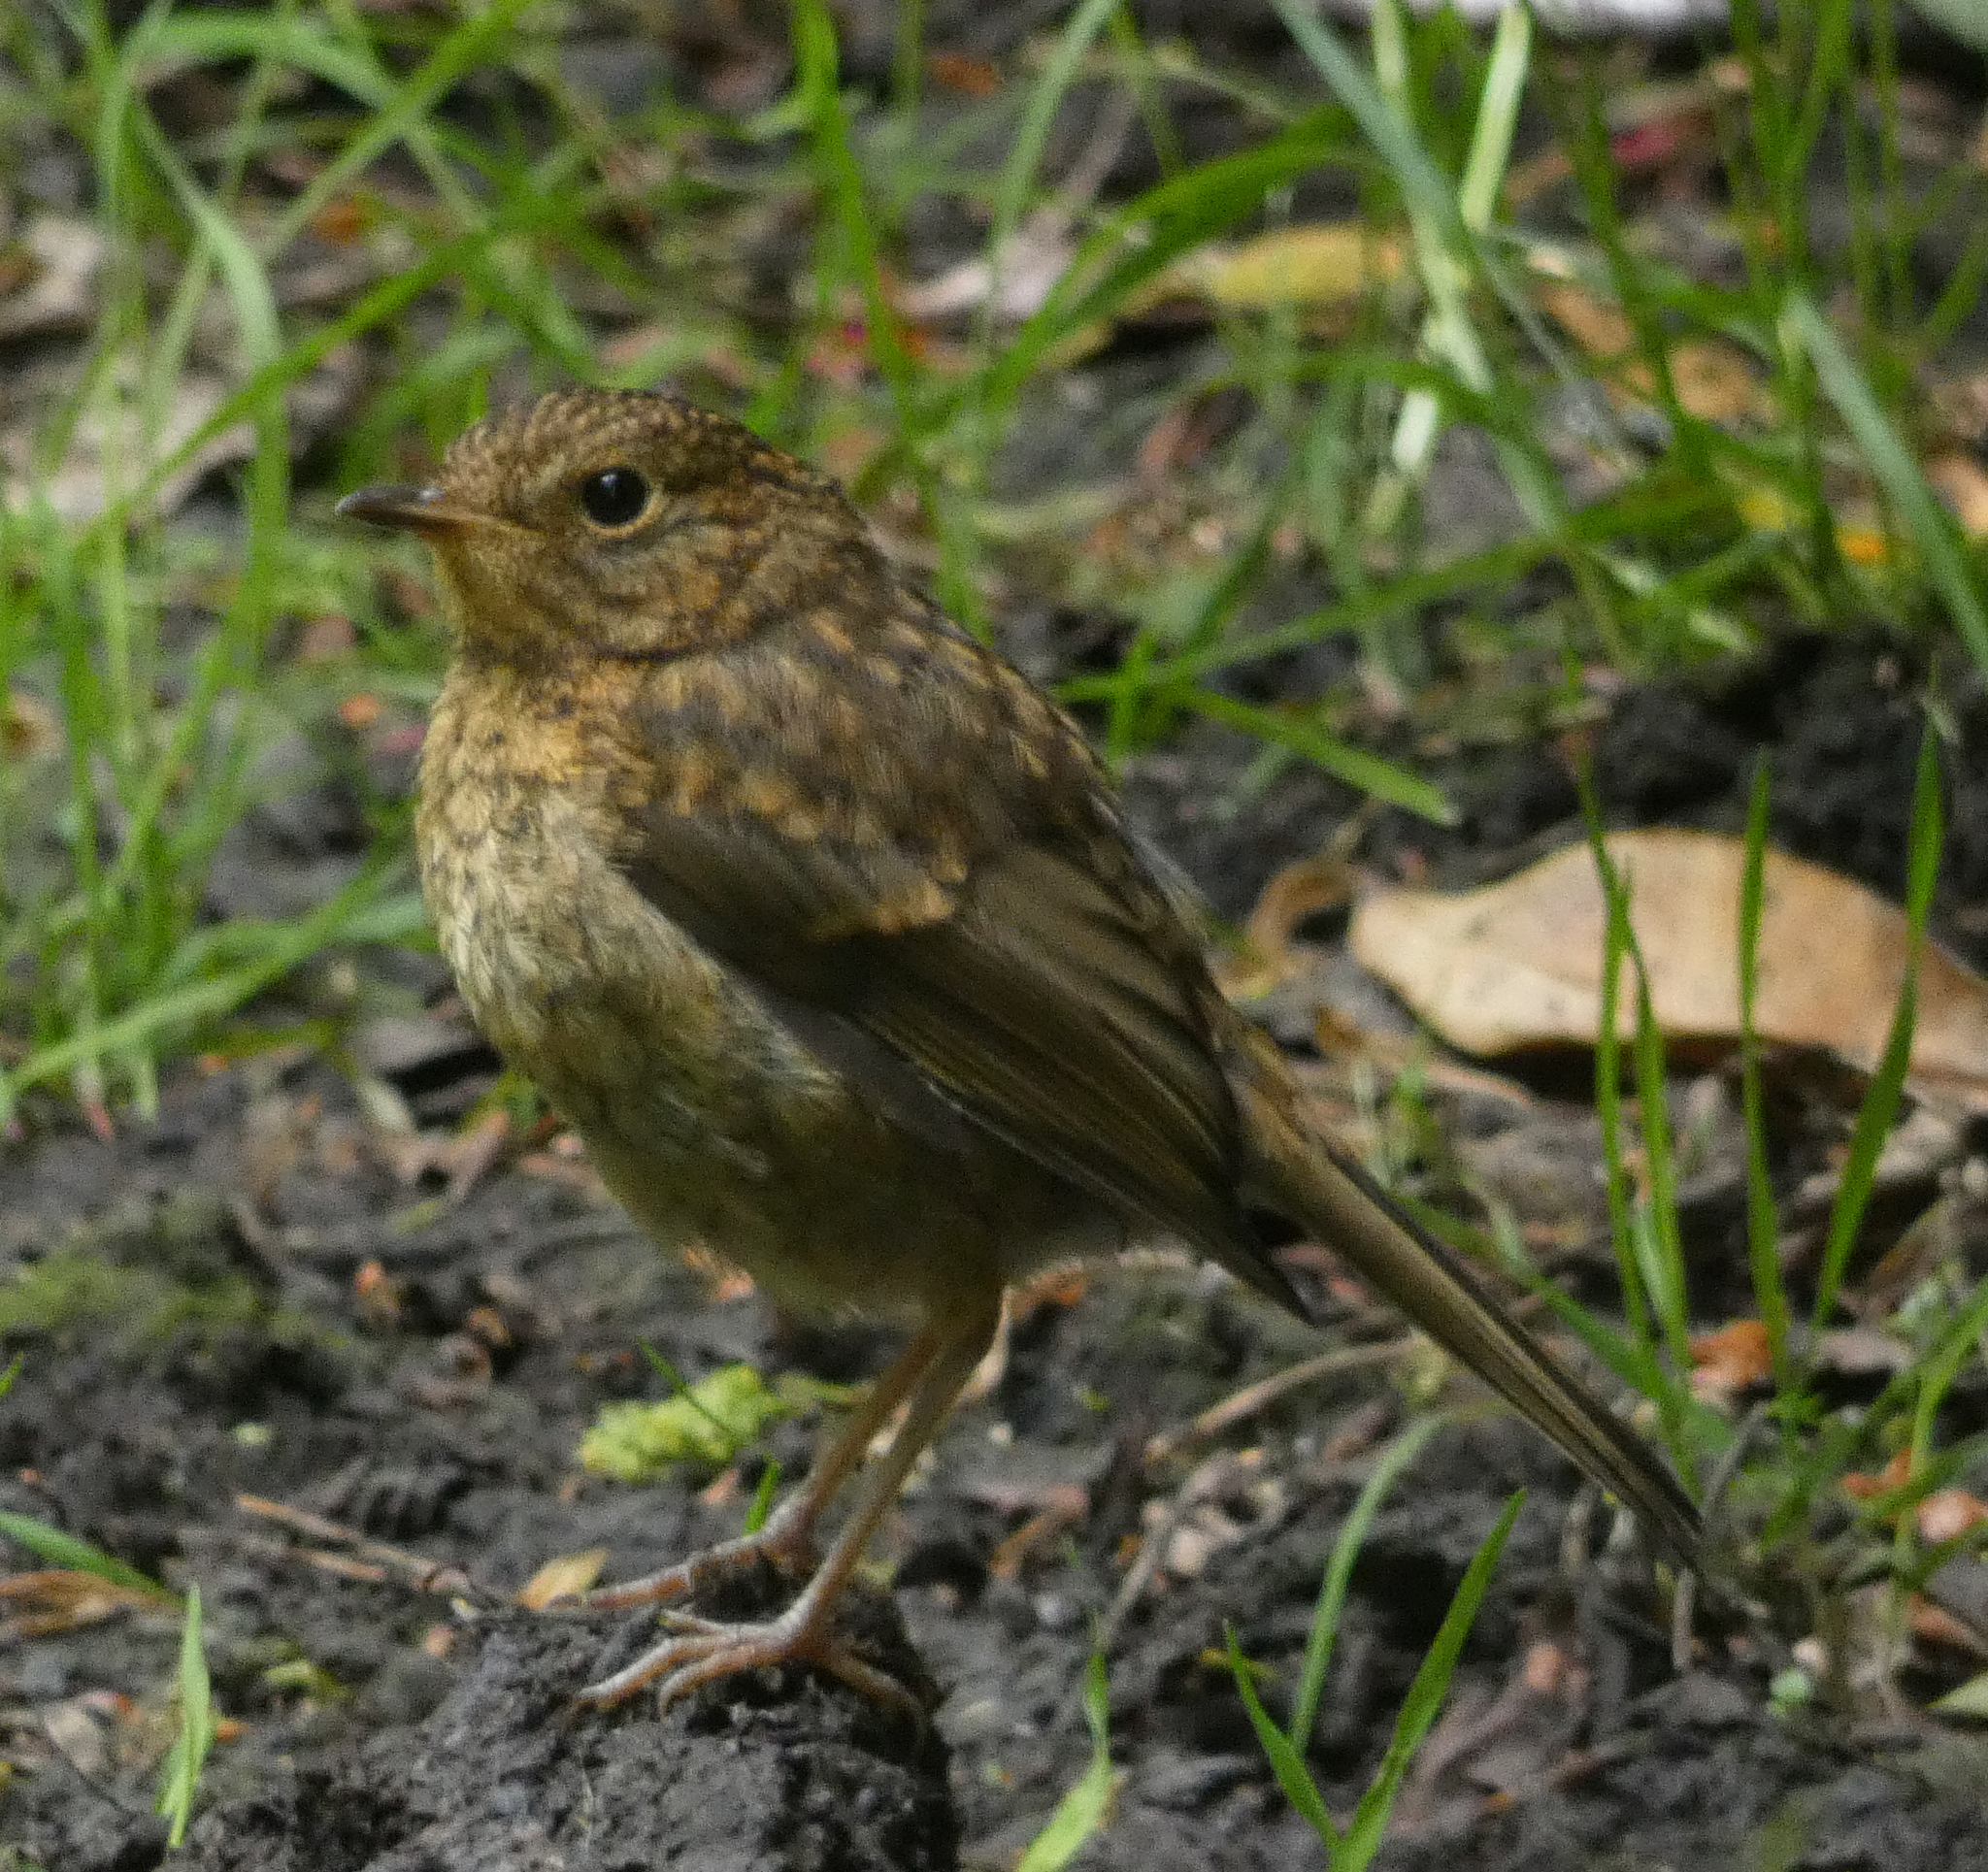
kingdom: Animalia
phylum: Chordata
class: Aves
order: Passeriformes
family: Muscicapidae
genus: Erithacus
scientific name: Erithacus rubecula
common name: European robin
